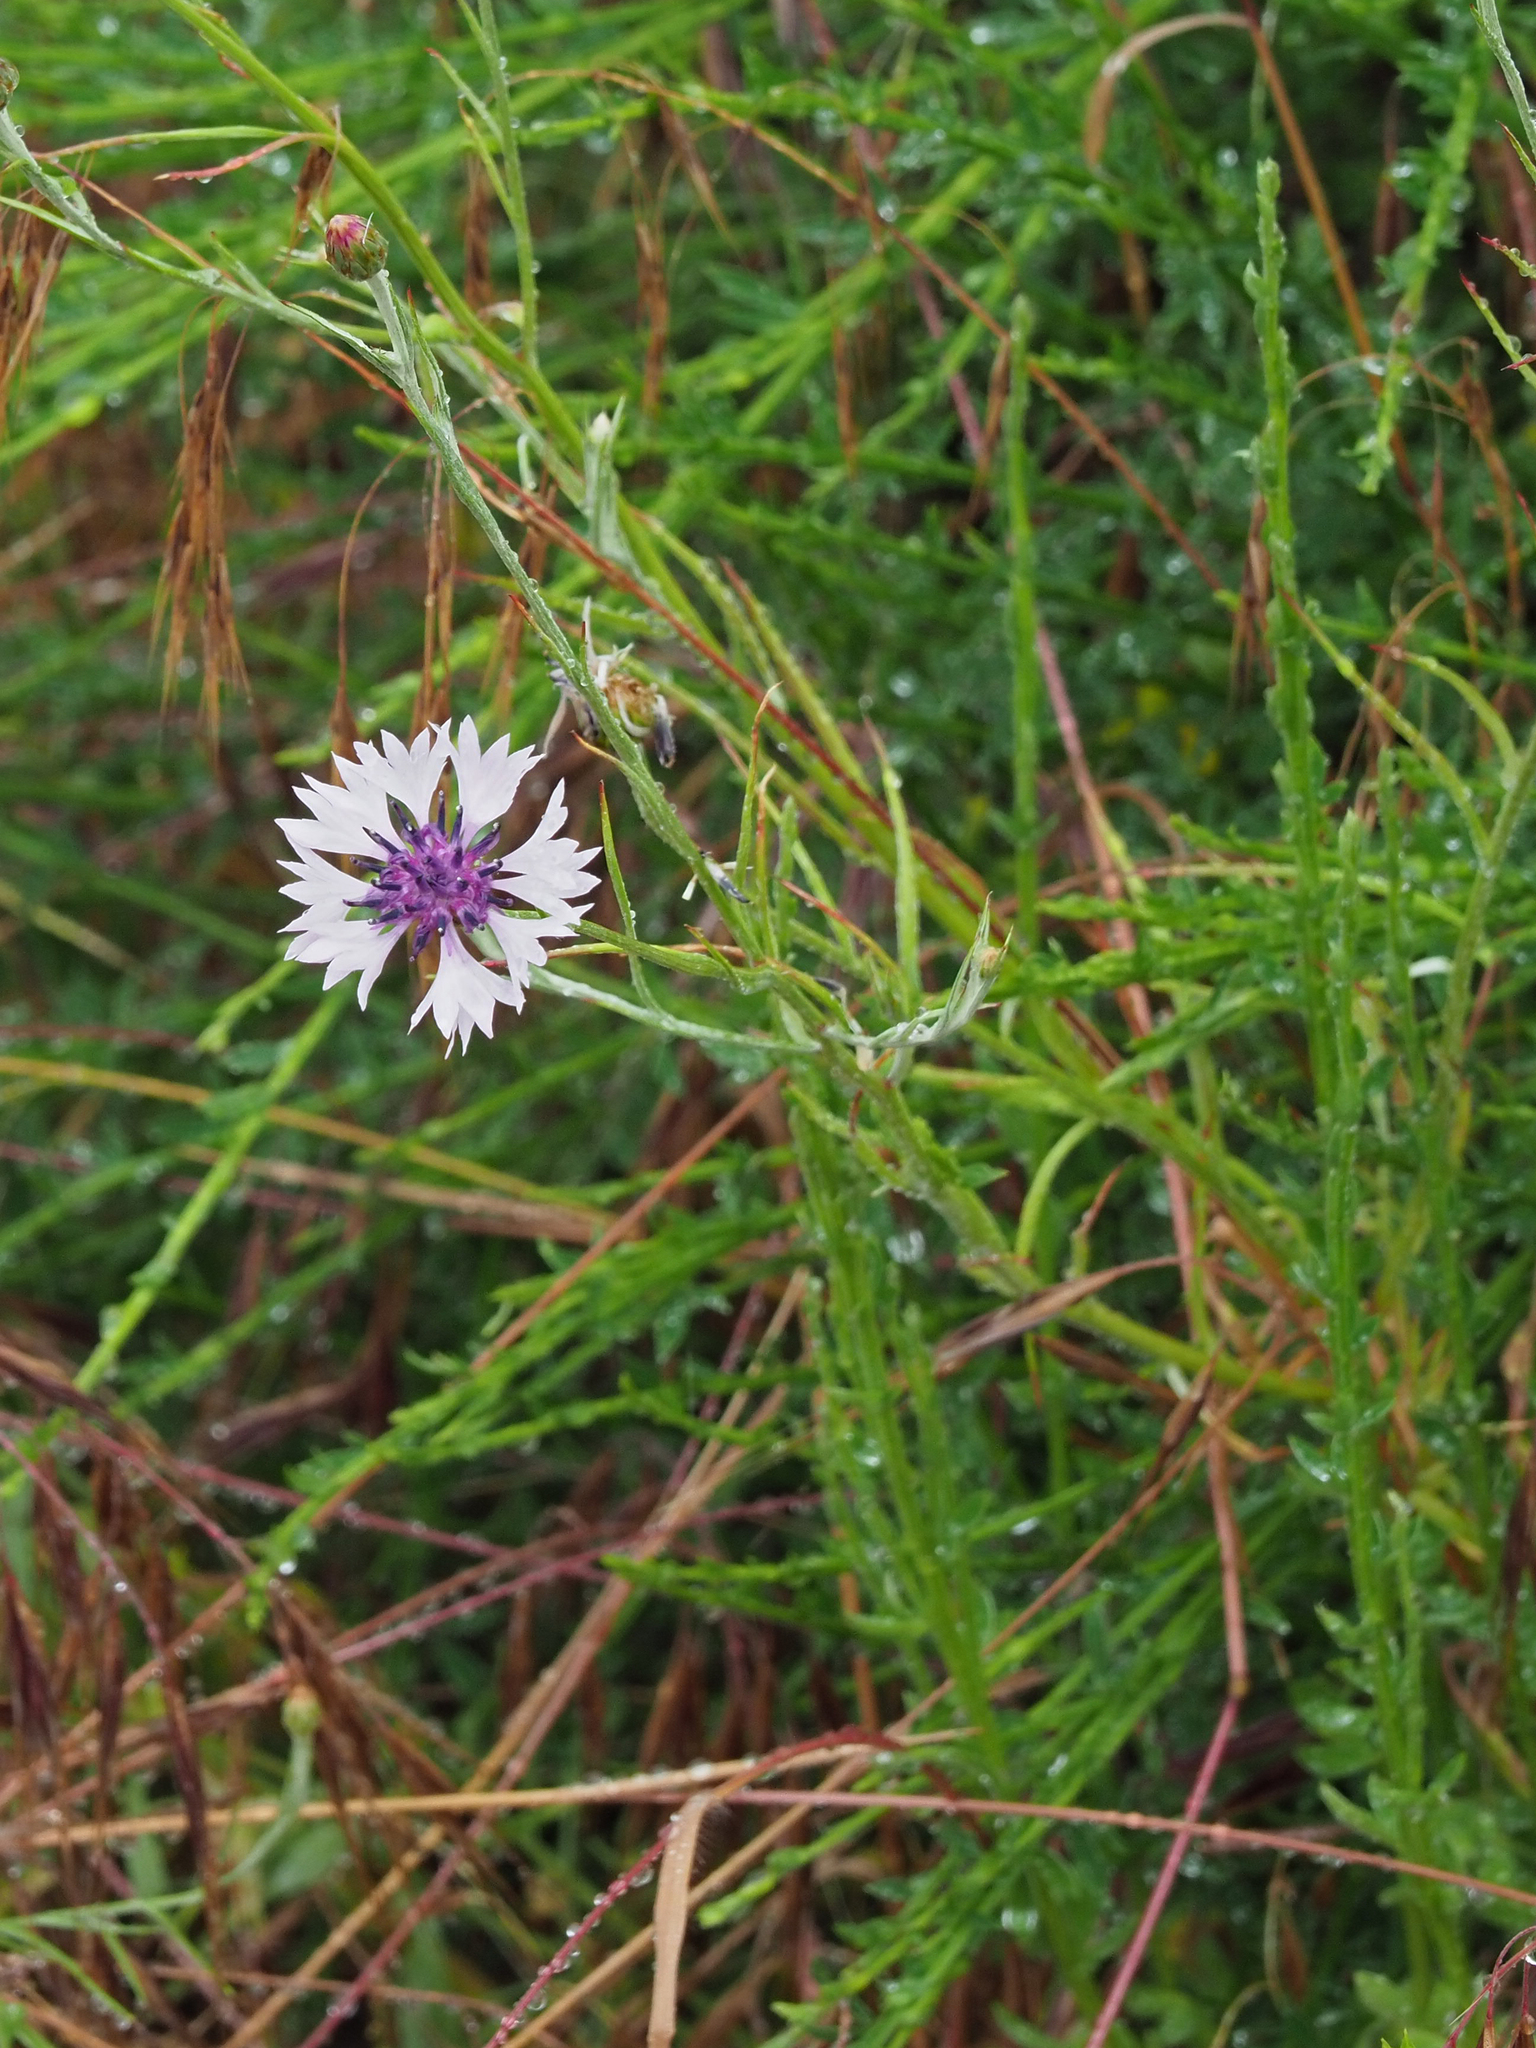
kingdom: Plantae
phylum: Tracheophyta
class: Magnoliopsida
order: Asterales
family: Asteraceae
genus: Centaurea
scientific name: Centaurea cyanus
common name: Cornflower
